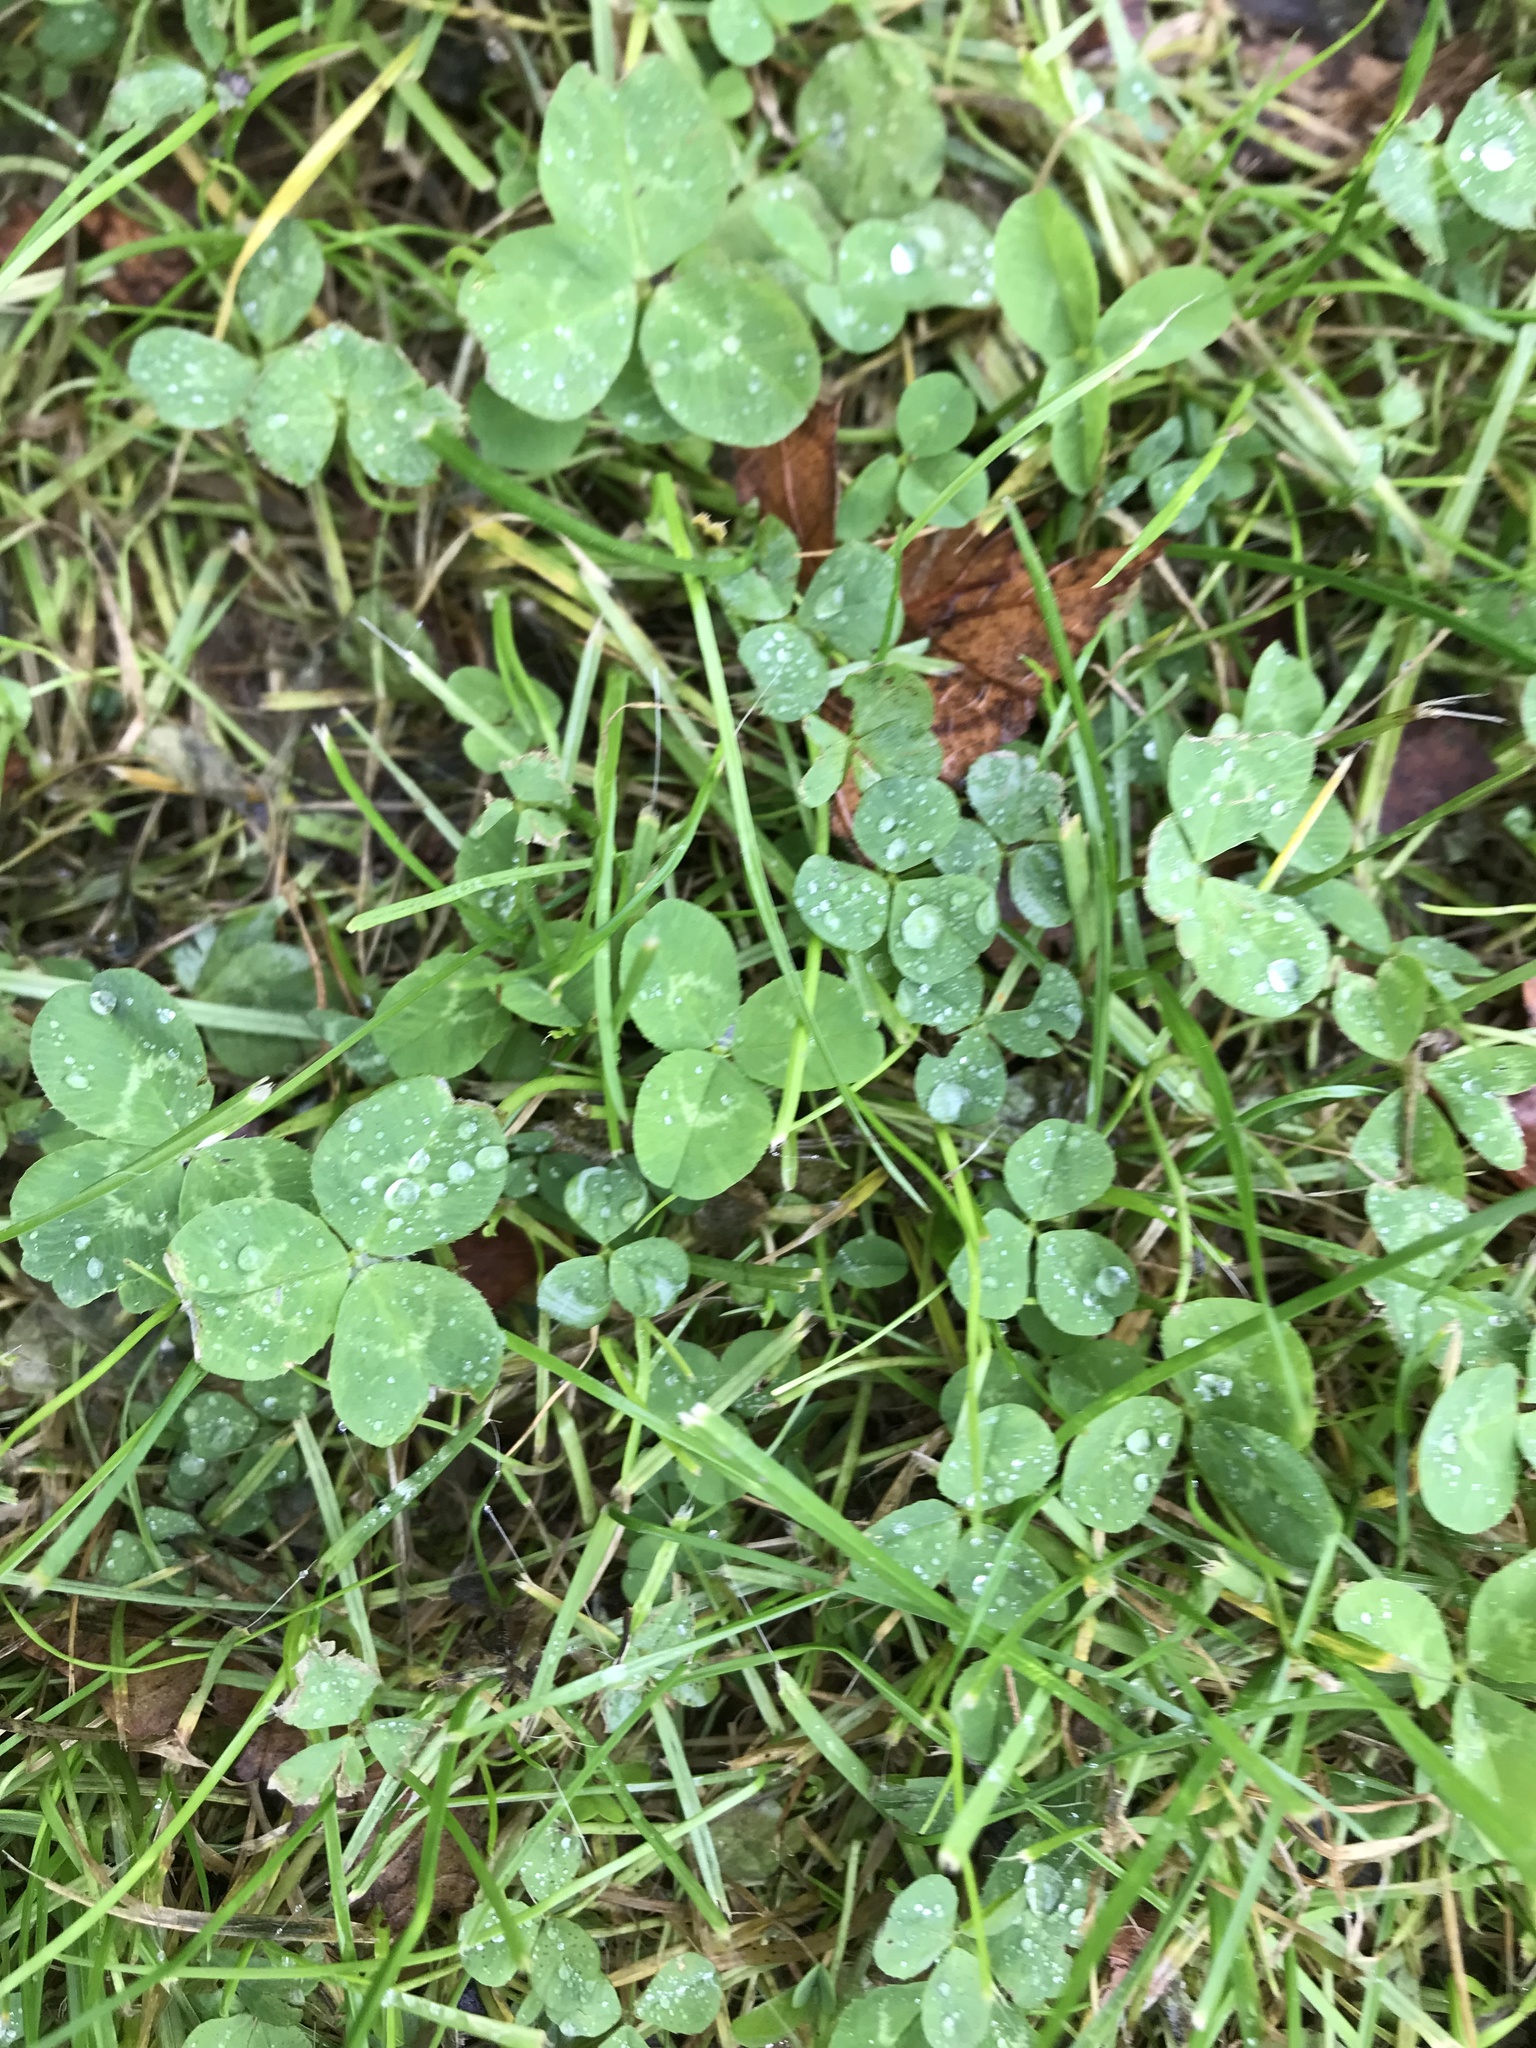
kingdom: Plantae
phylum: Tracheophyta
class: Magnoliopsida
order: Fabales
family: Fabaceae
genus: Trifolium
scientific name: Trifolium repens
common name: White clover
